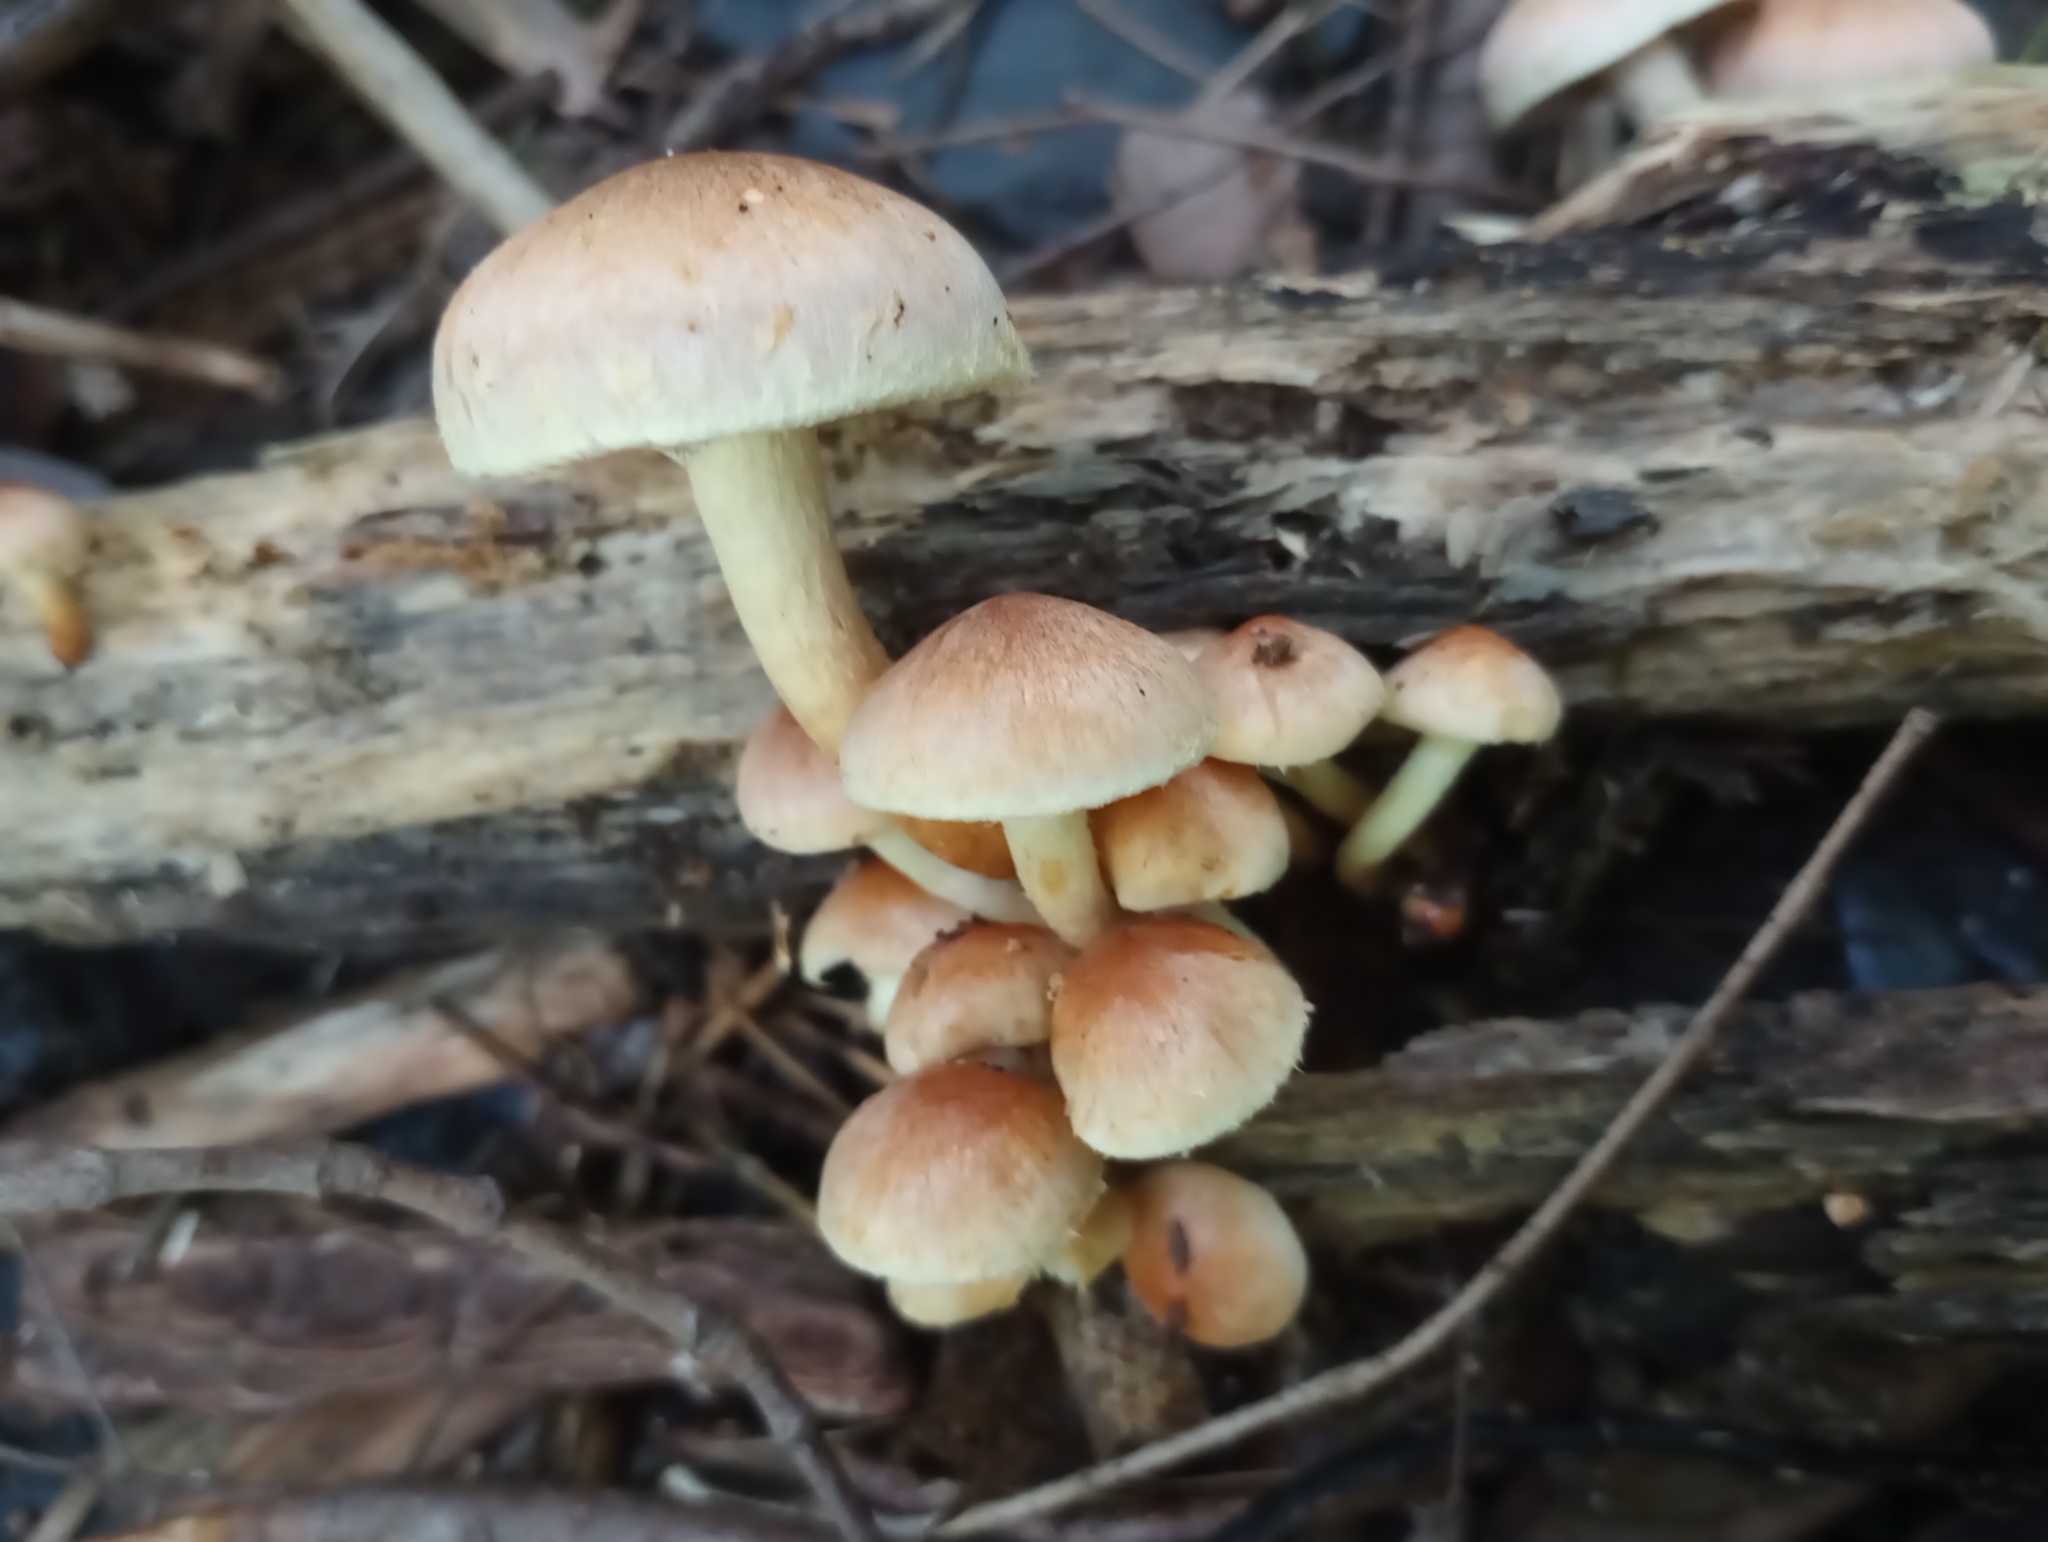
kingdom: Fungi
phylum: Basidiomycota
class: Agaricomycetes
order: Agaricales
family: Strophariaceae
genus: Hypholoma
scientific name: Hypholoma fasciculare
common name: Sulphur tuft
